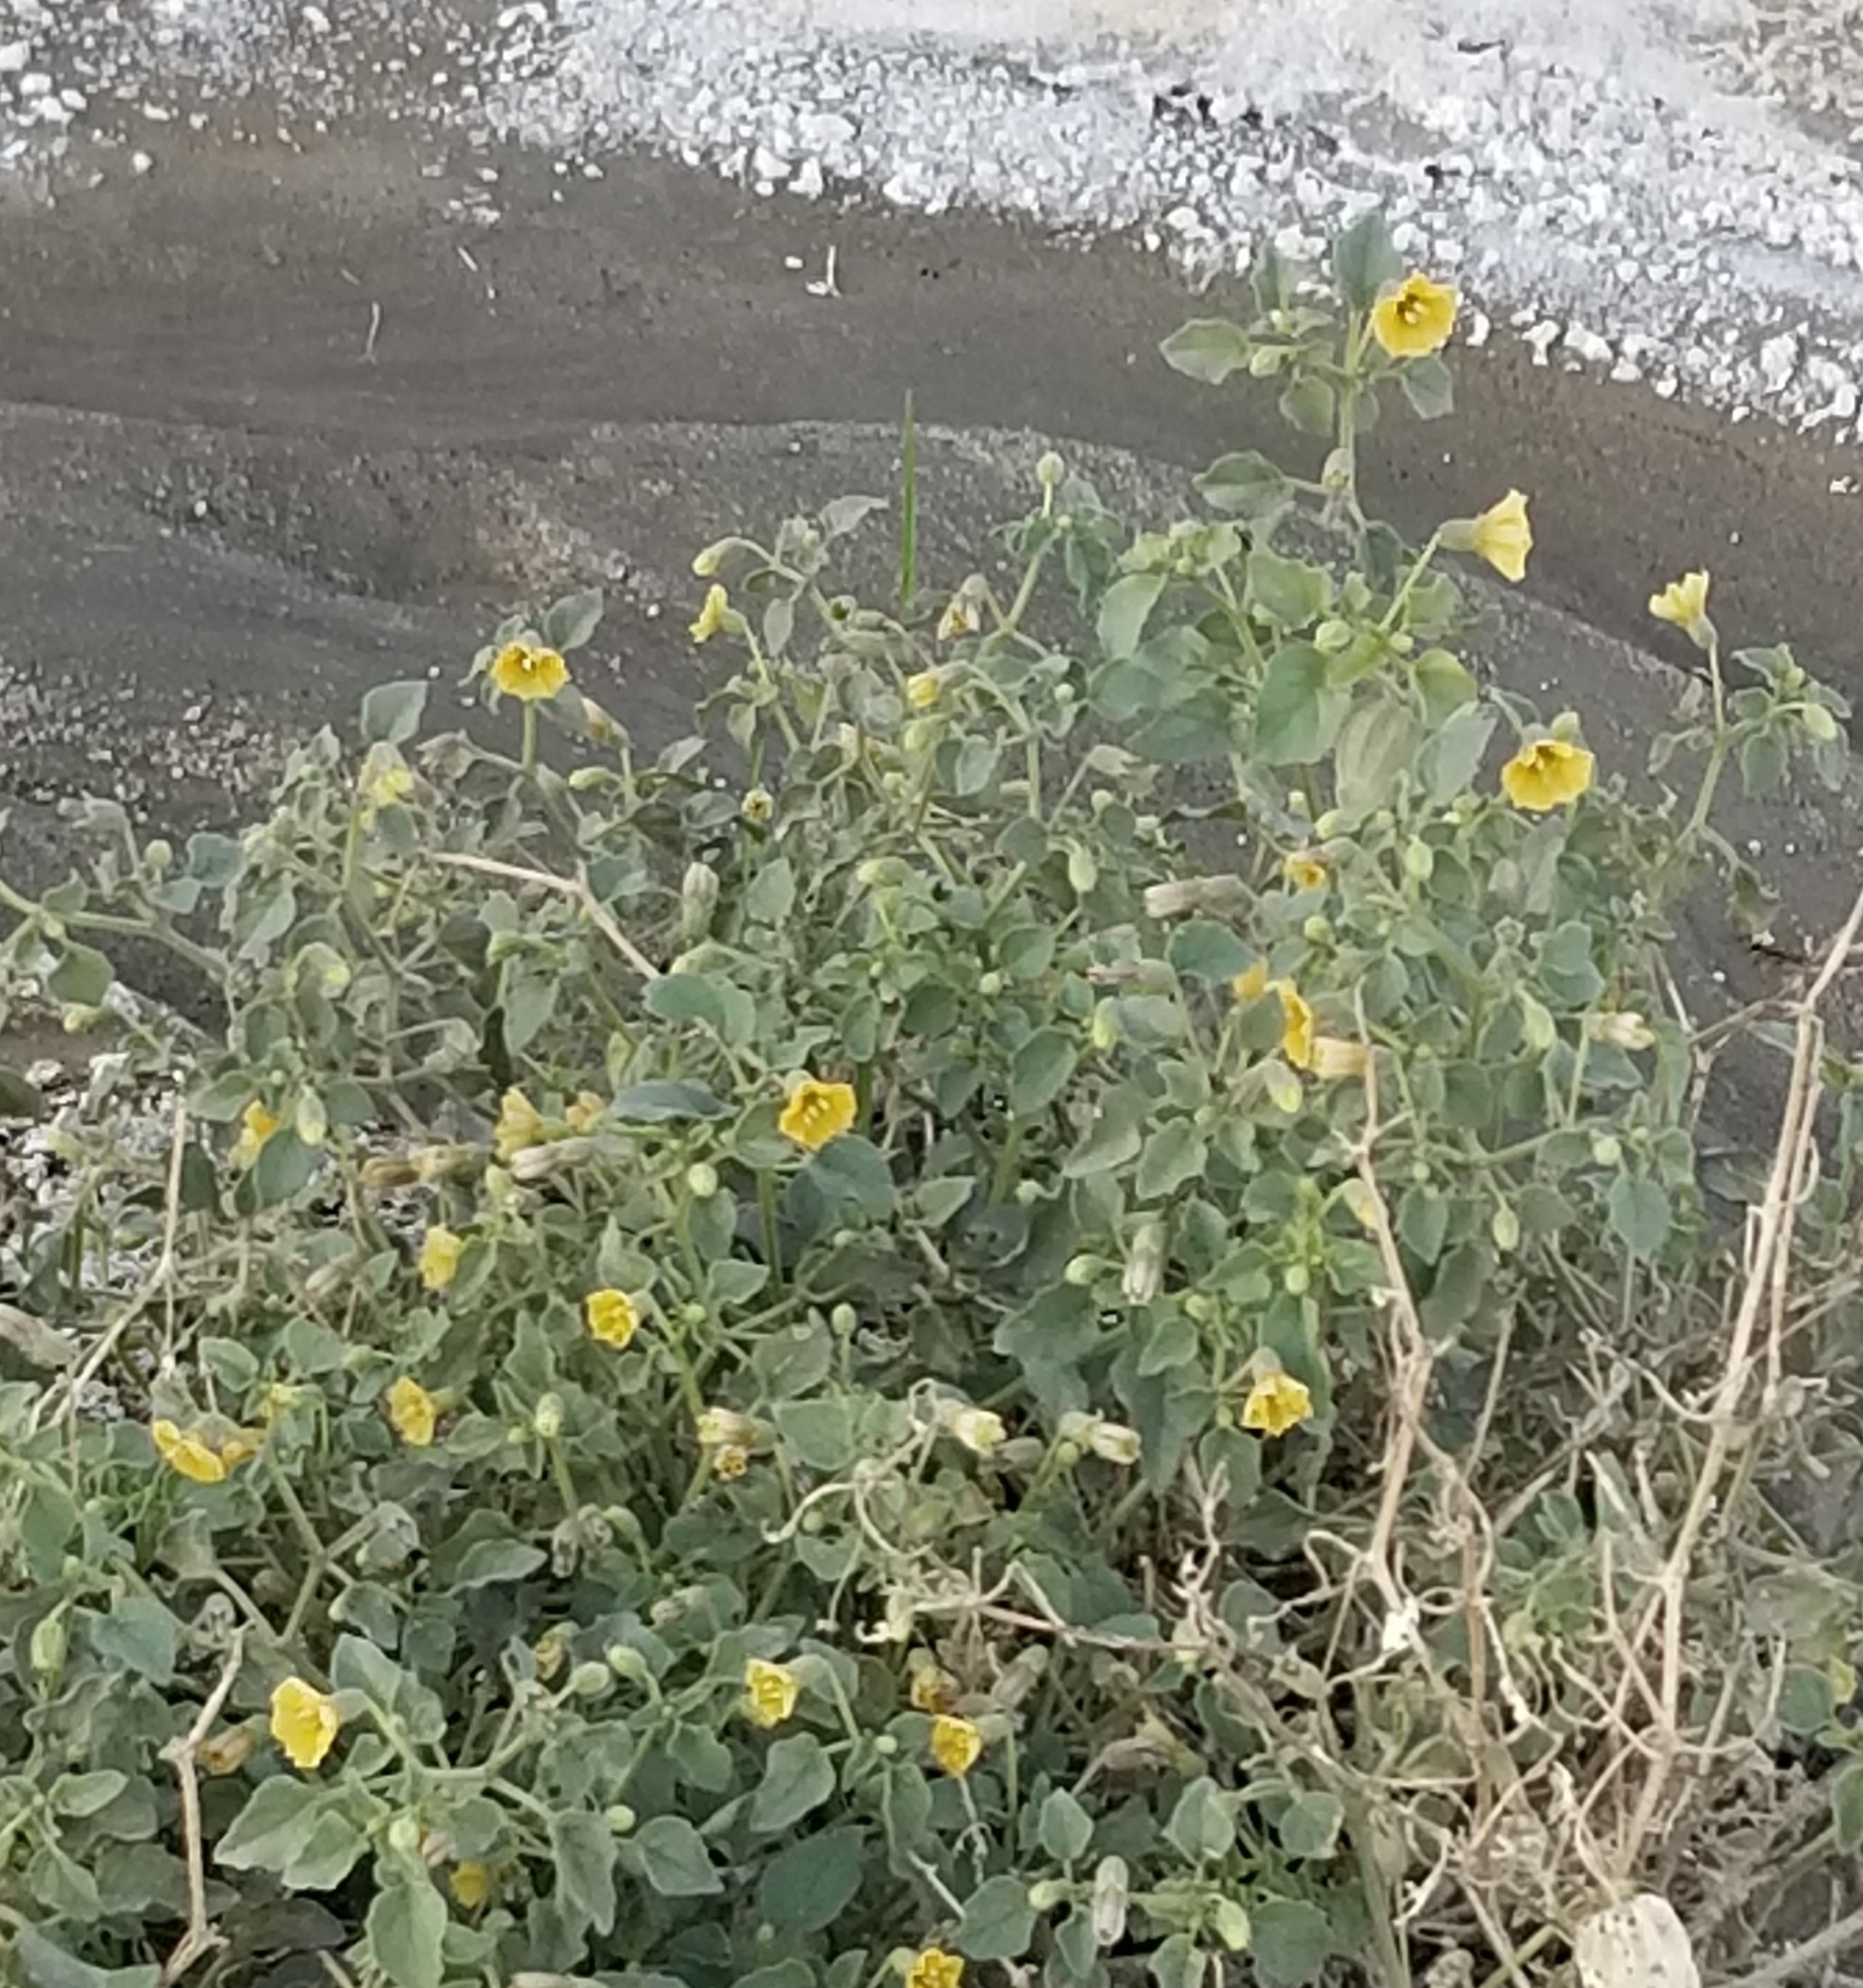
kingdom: Plantae
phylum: Tracheophyta
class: Magnoliopsida
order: Solanales
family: Solanaceae
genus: Physalis
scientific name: Physalis crassifolia
